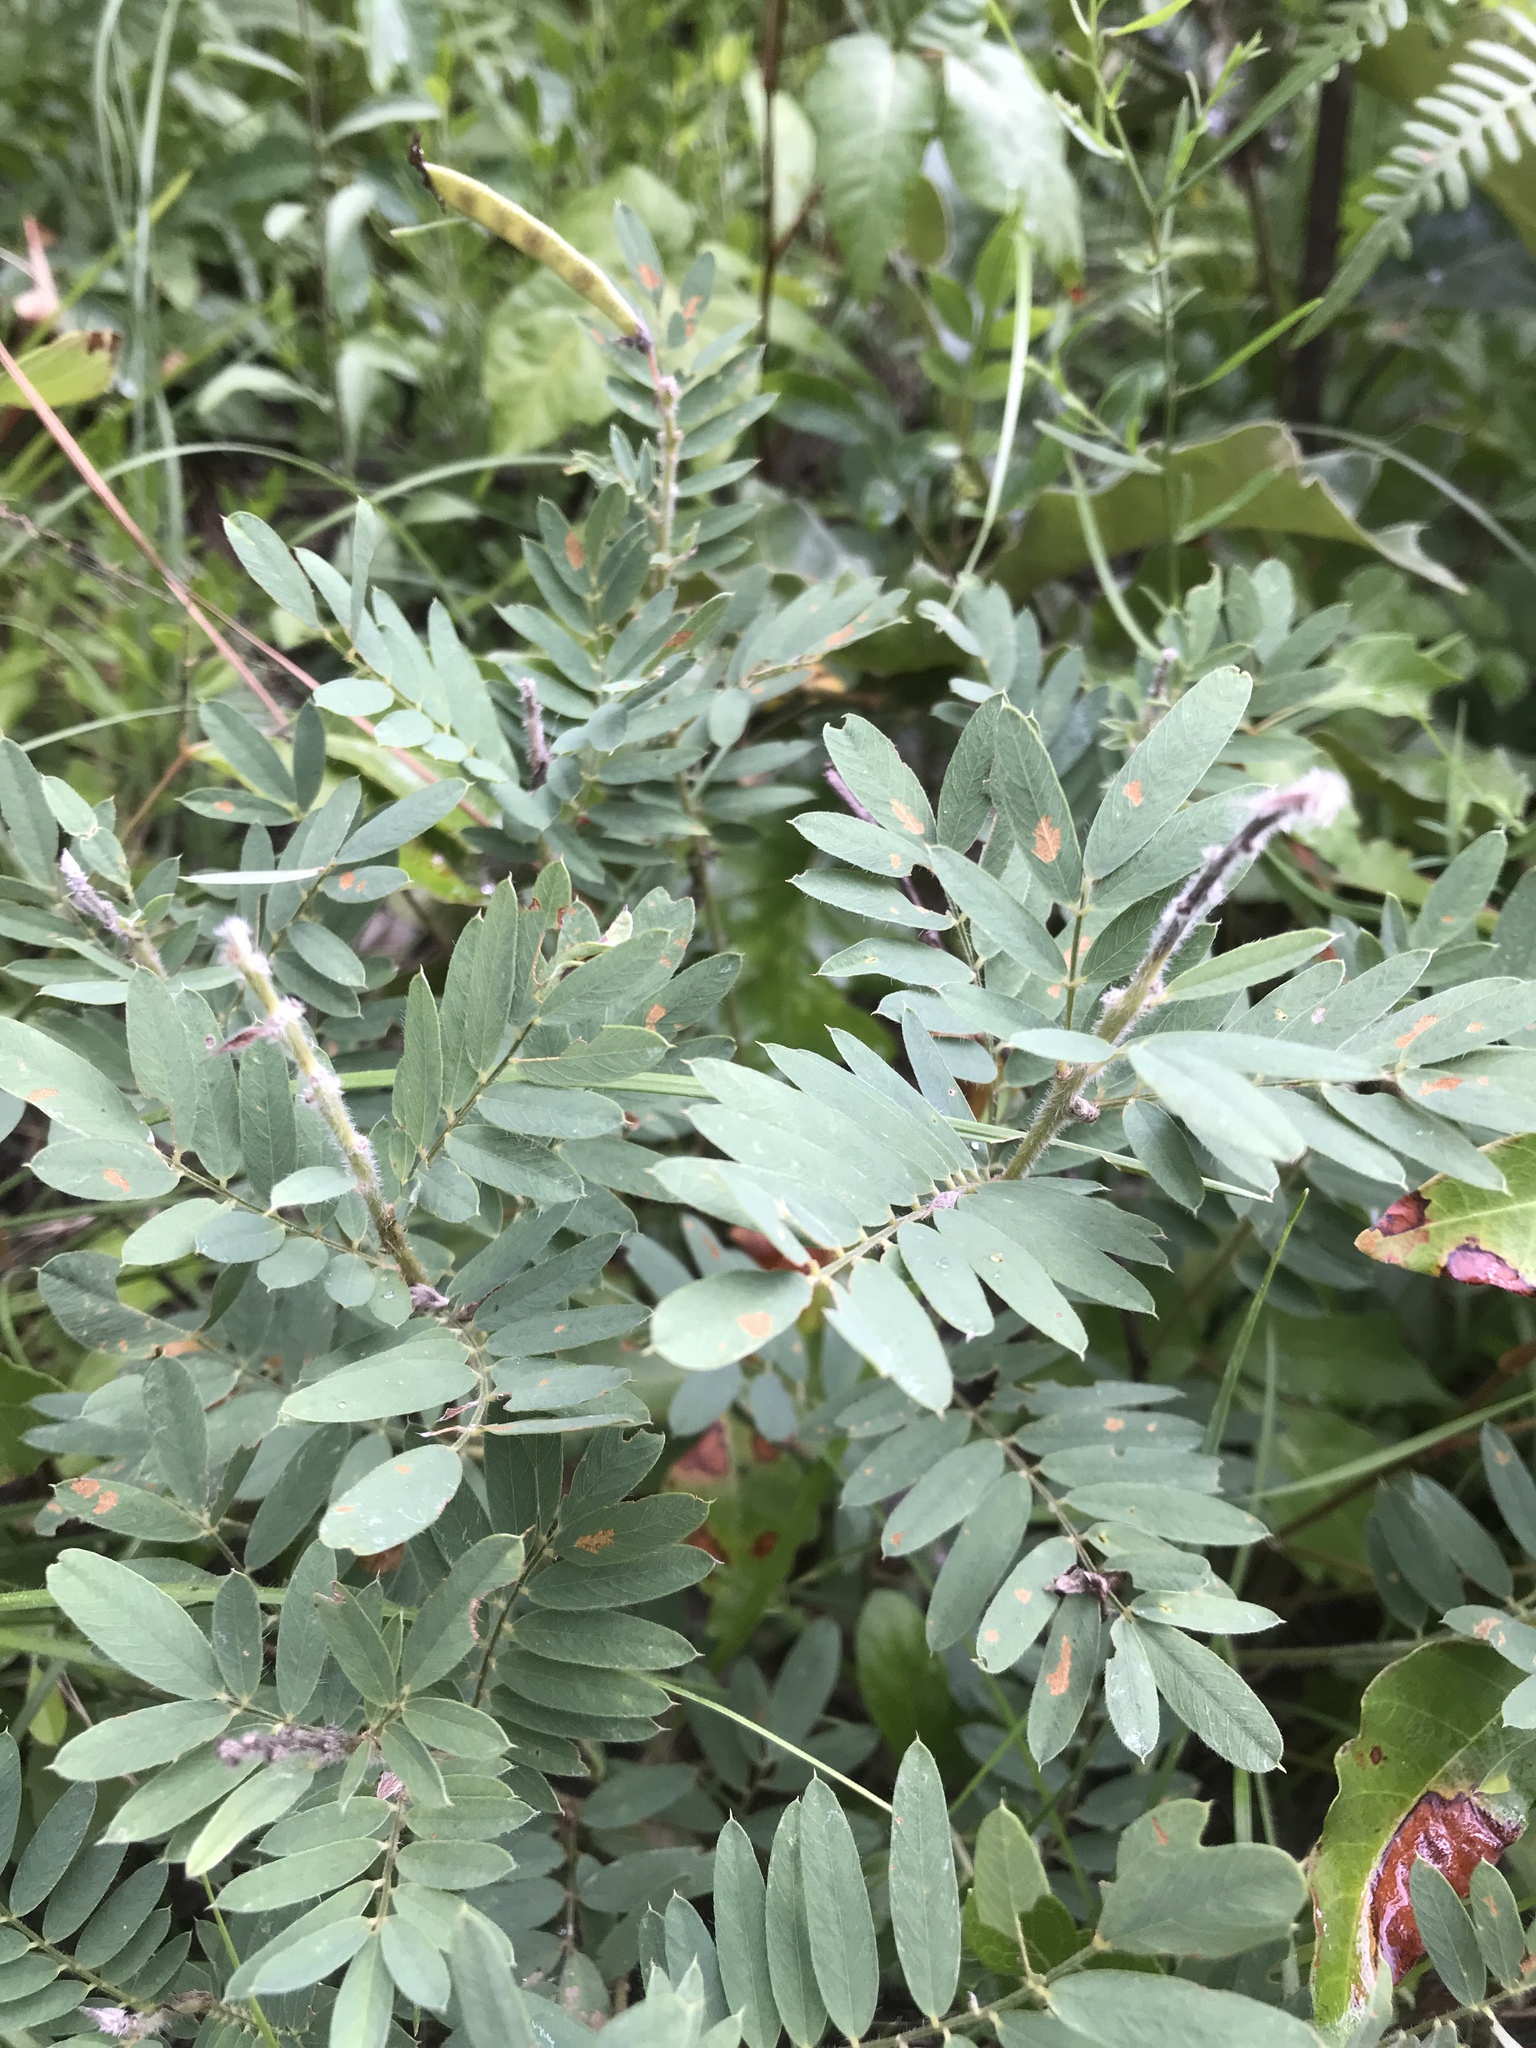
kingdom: Plantae
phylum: Tracheophyta
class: Magnoliopsida
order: Fabales
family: Fabaceae
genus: Tephrosia
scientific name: Tephrosia virginiana
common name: Rabbit-pea
